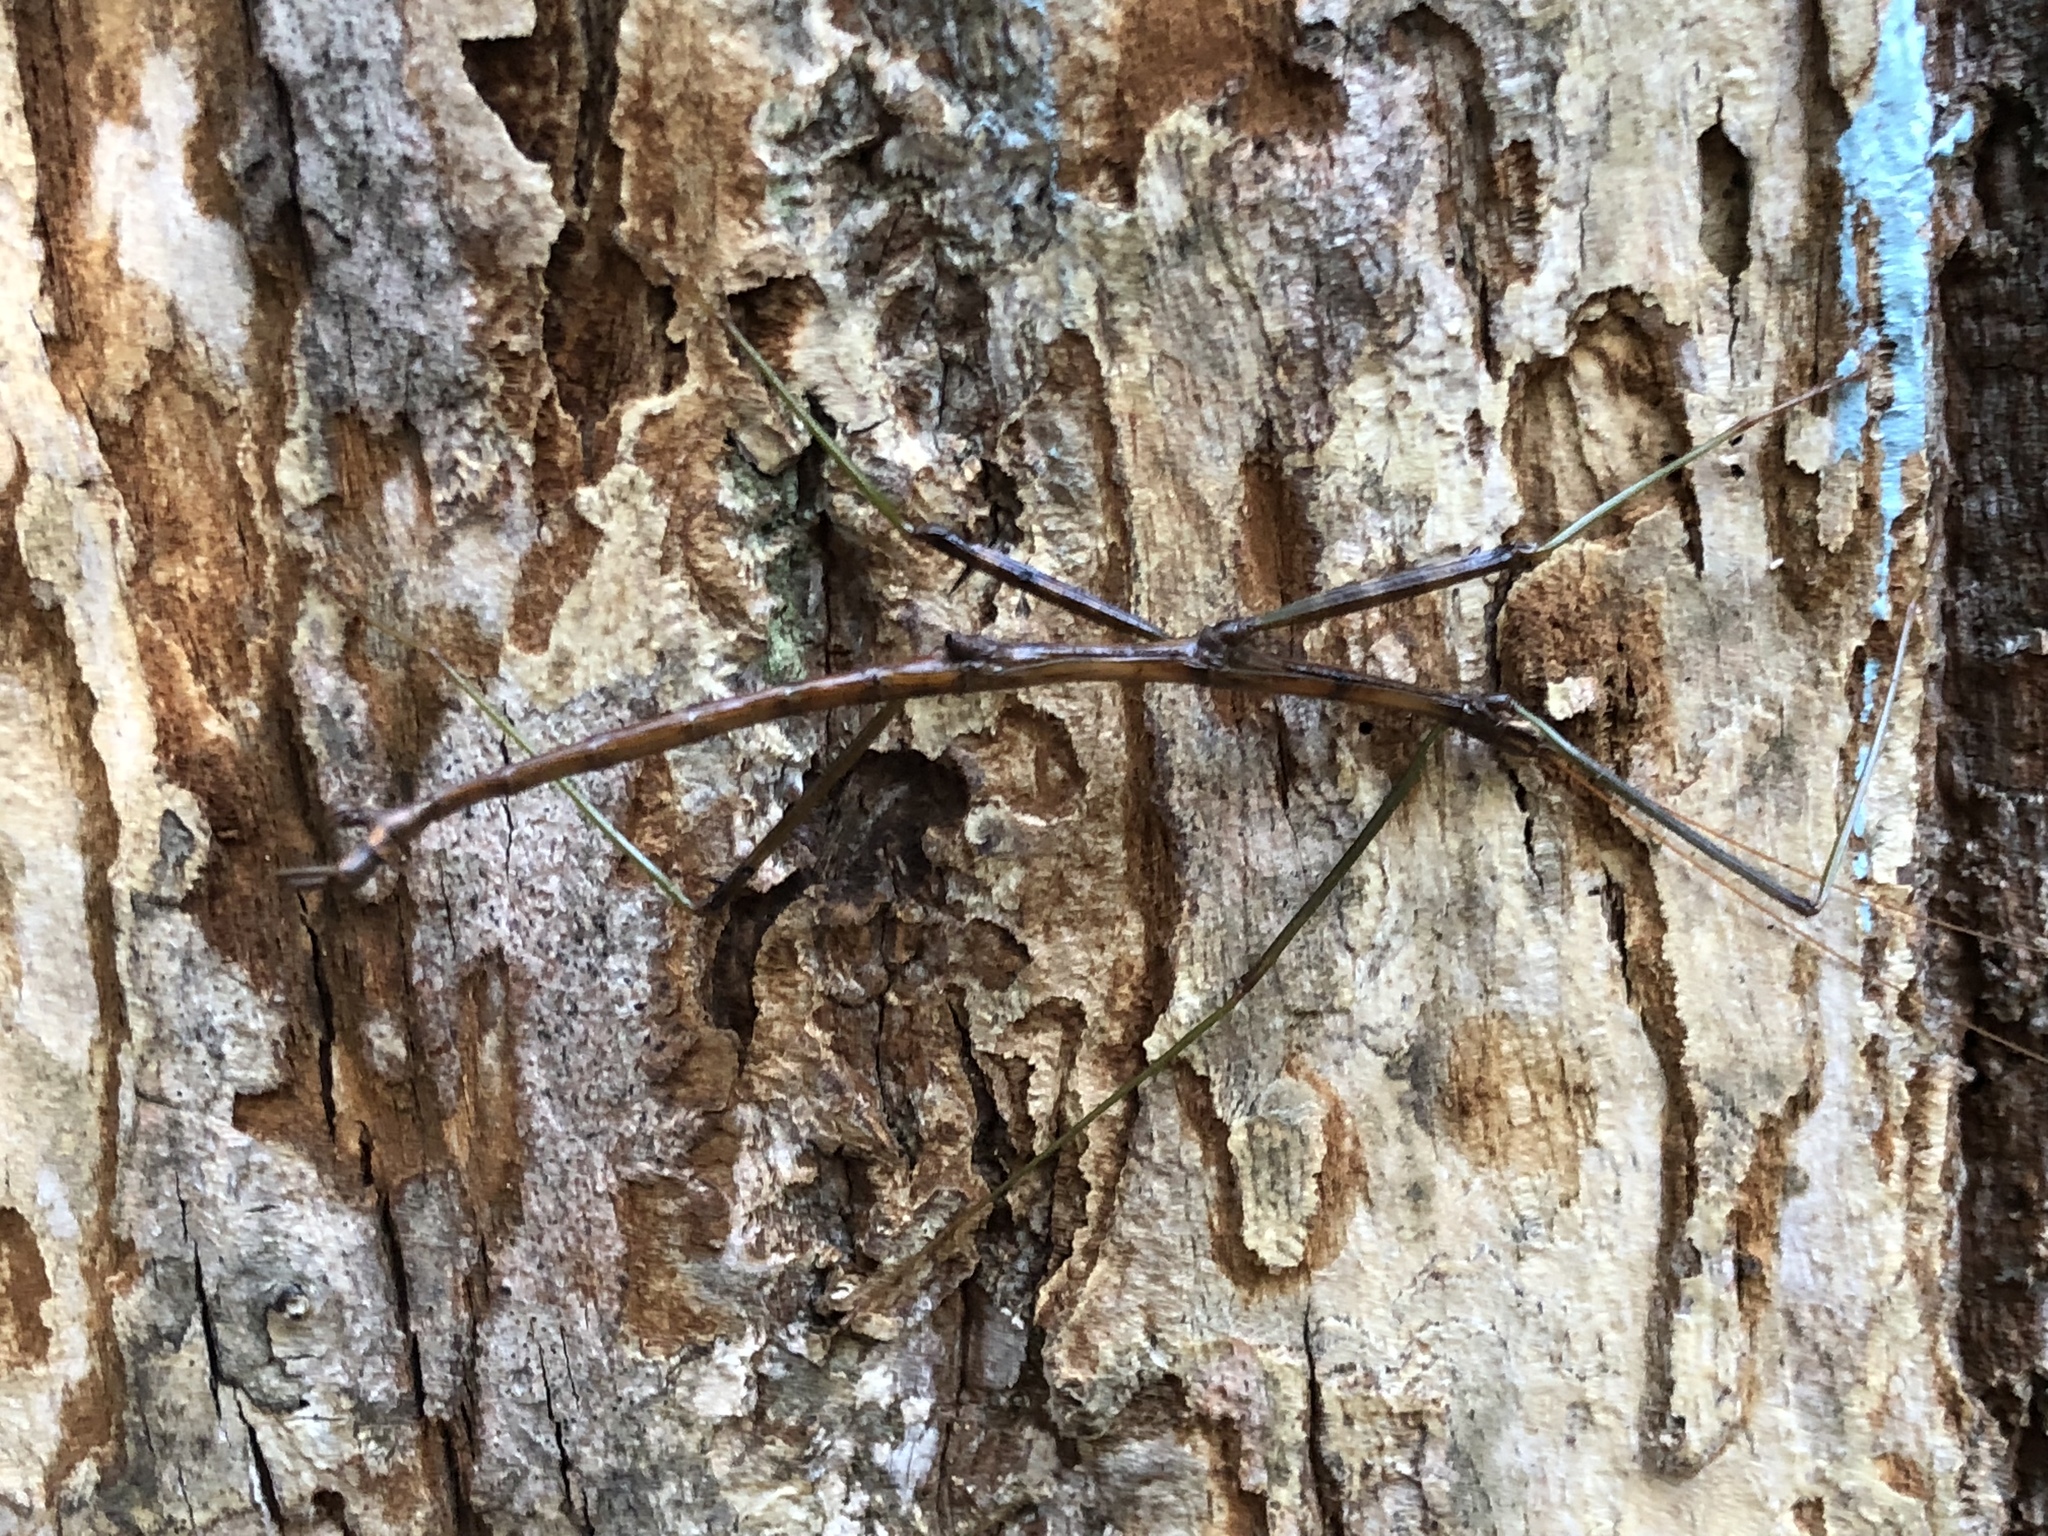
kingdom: Animalia
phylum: Arthropoda
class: Insecta
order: Phasmida
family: Diapheromeridae
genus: Diapheromera
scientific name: Diapheromera femorata
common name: Common american walkingstick
